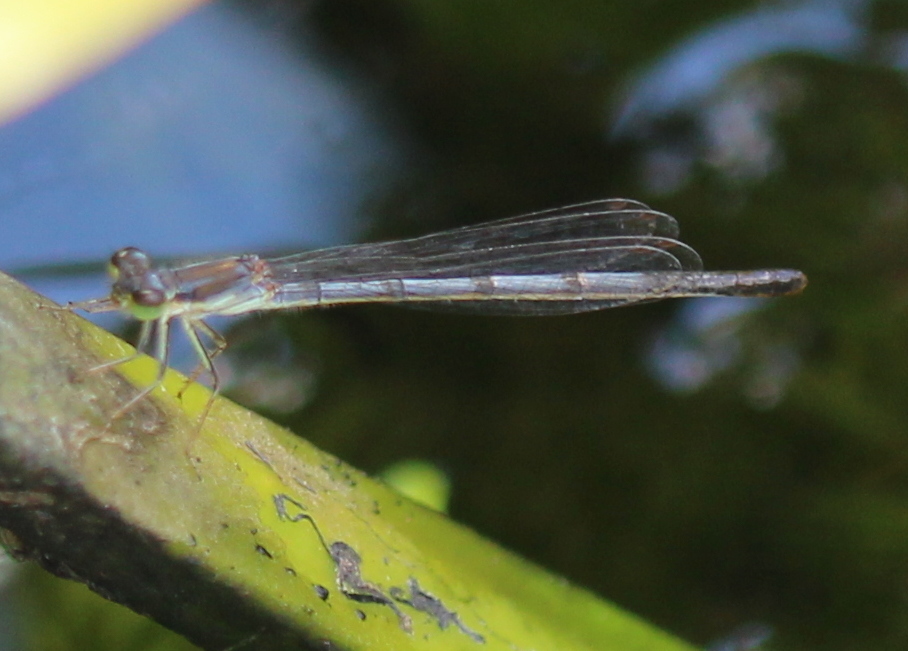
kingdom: Animalia
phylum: Arthropoda
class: Insecta
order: Odonata
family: Coenagrionidae
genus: Ischnura
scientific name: Ischnura posita
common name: Fragile forktail
